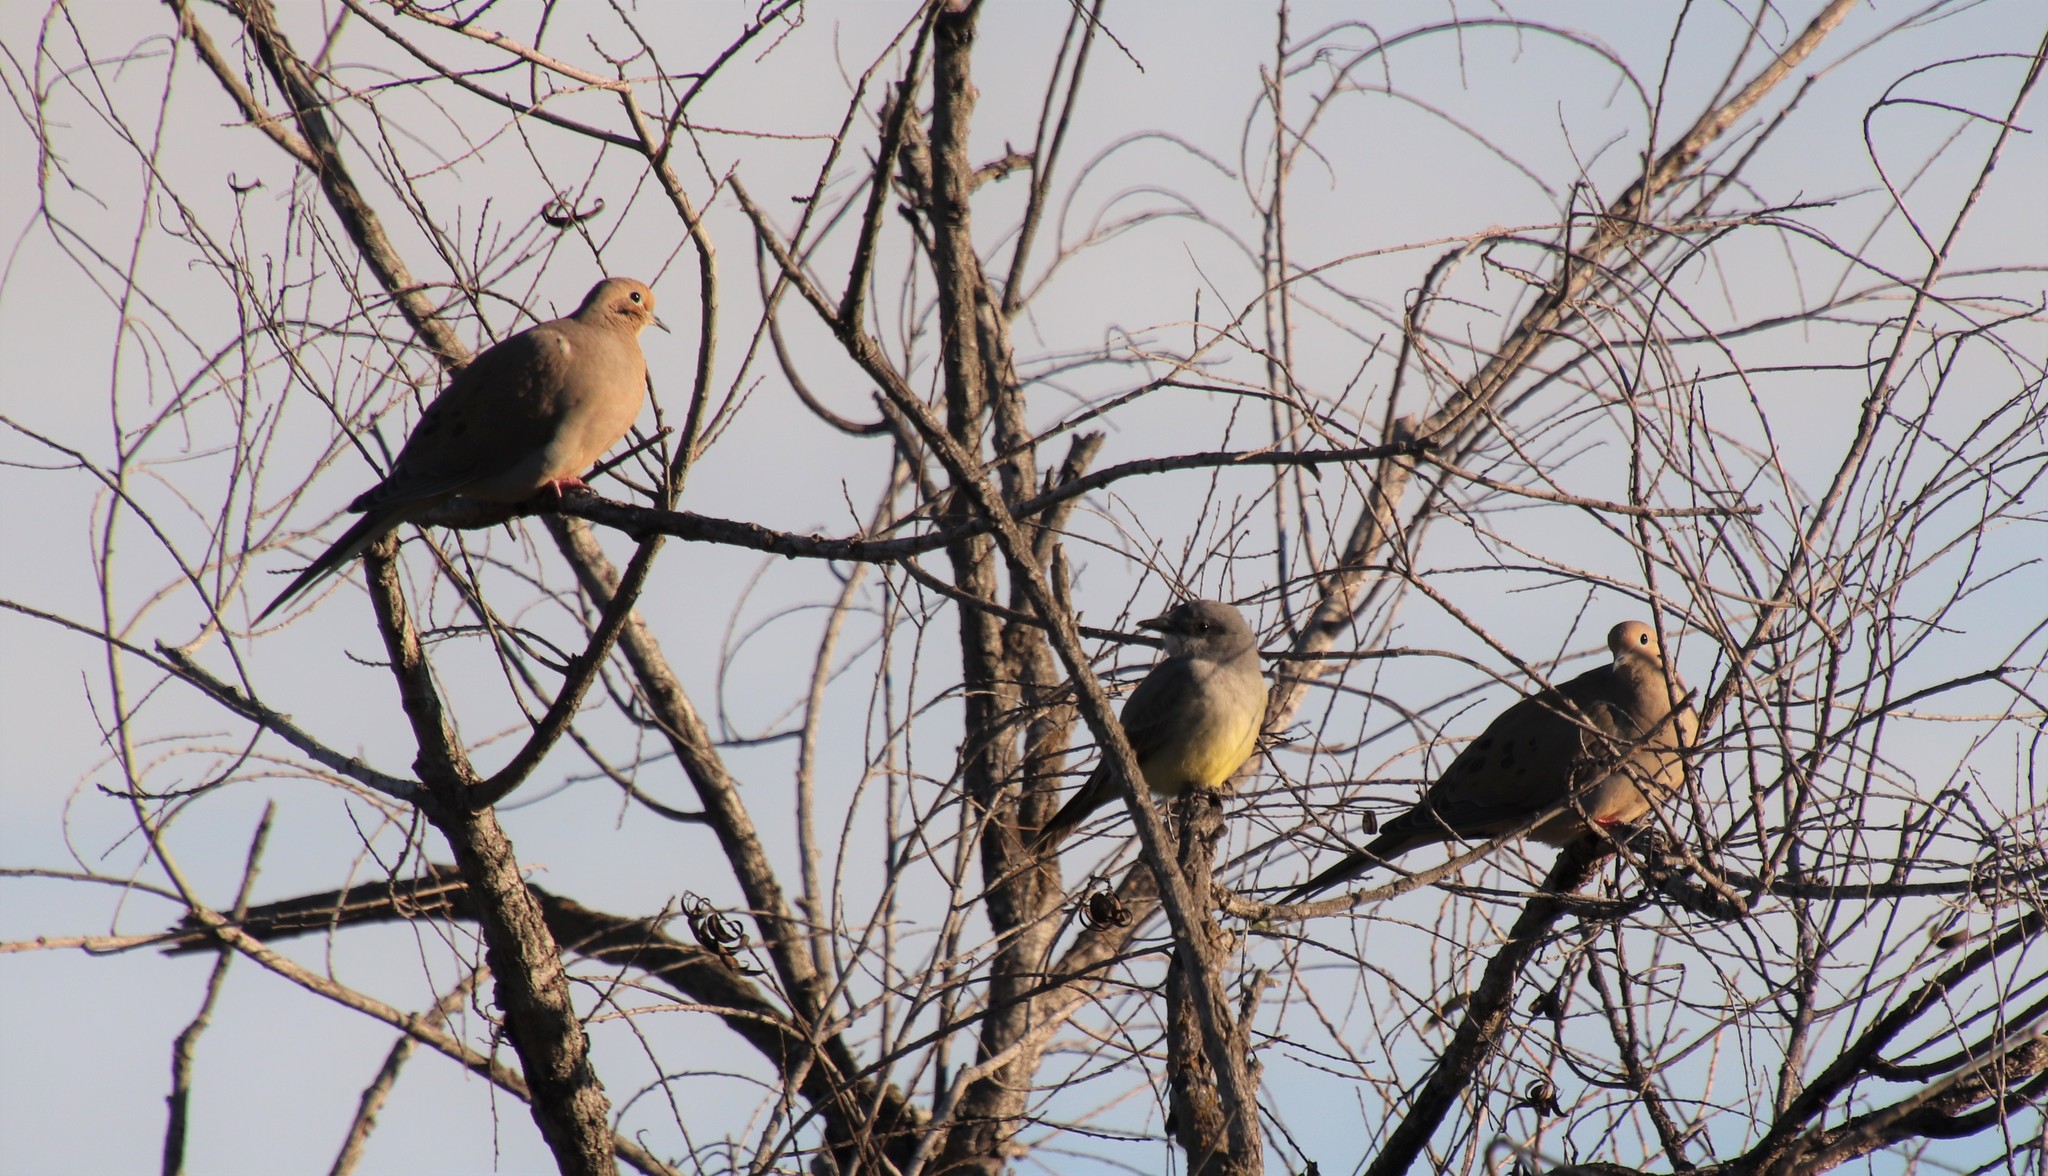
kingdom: Animalia
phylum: Chordata
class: Aves
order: Columbiformes
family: Columbidae
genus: Zenaida
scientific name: Zenaida macroura
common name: Mourning dove
